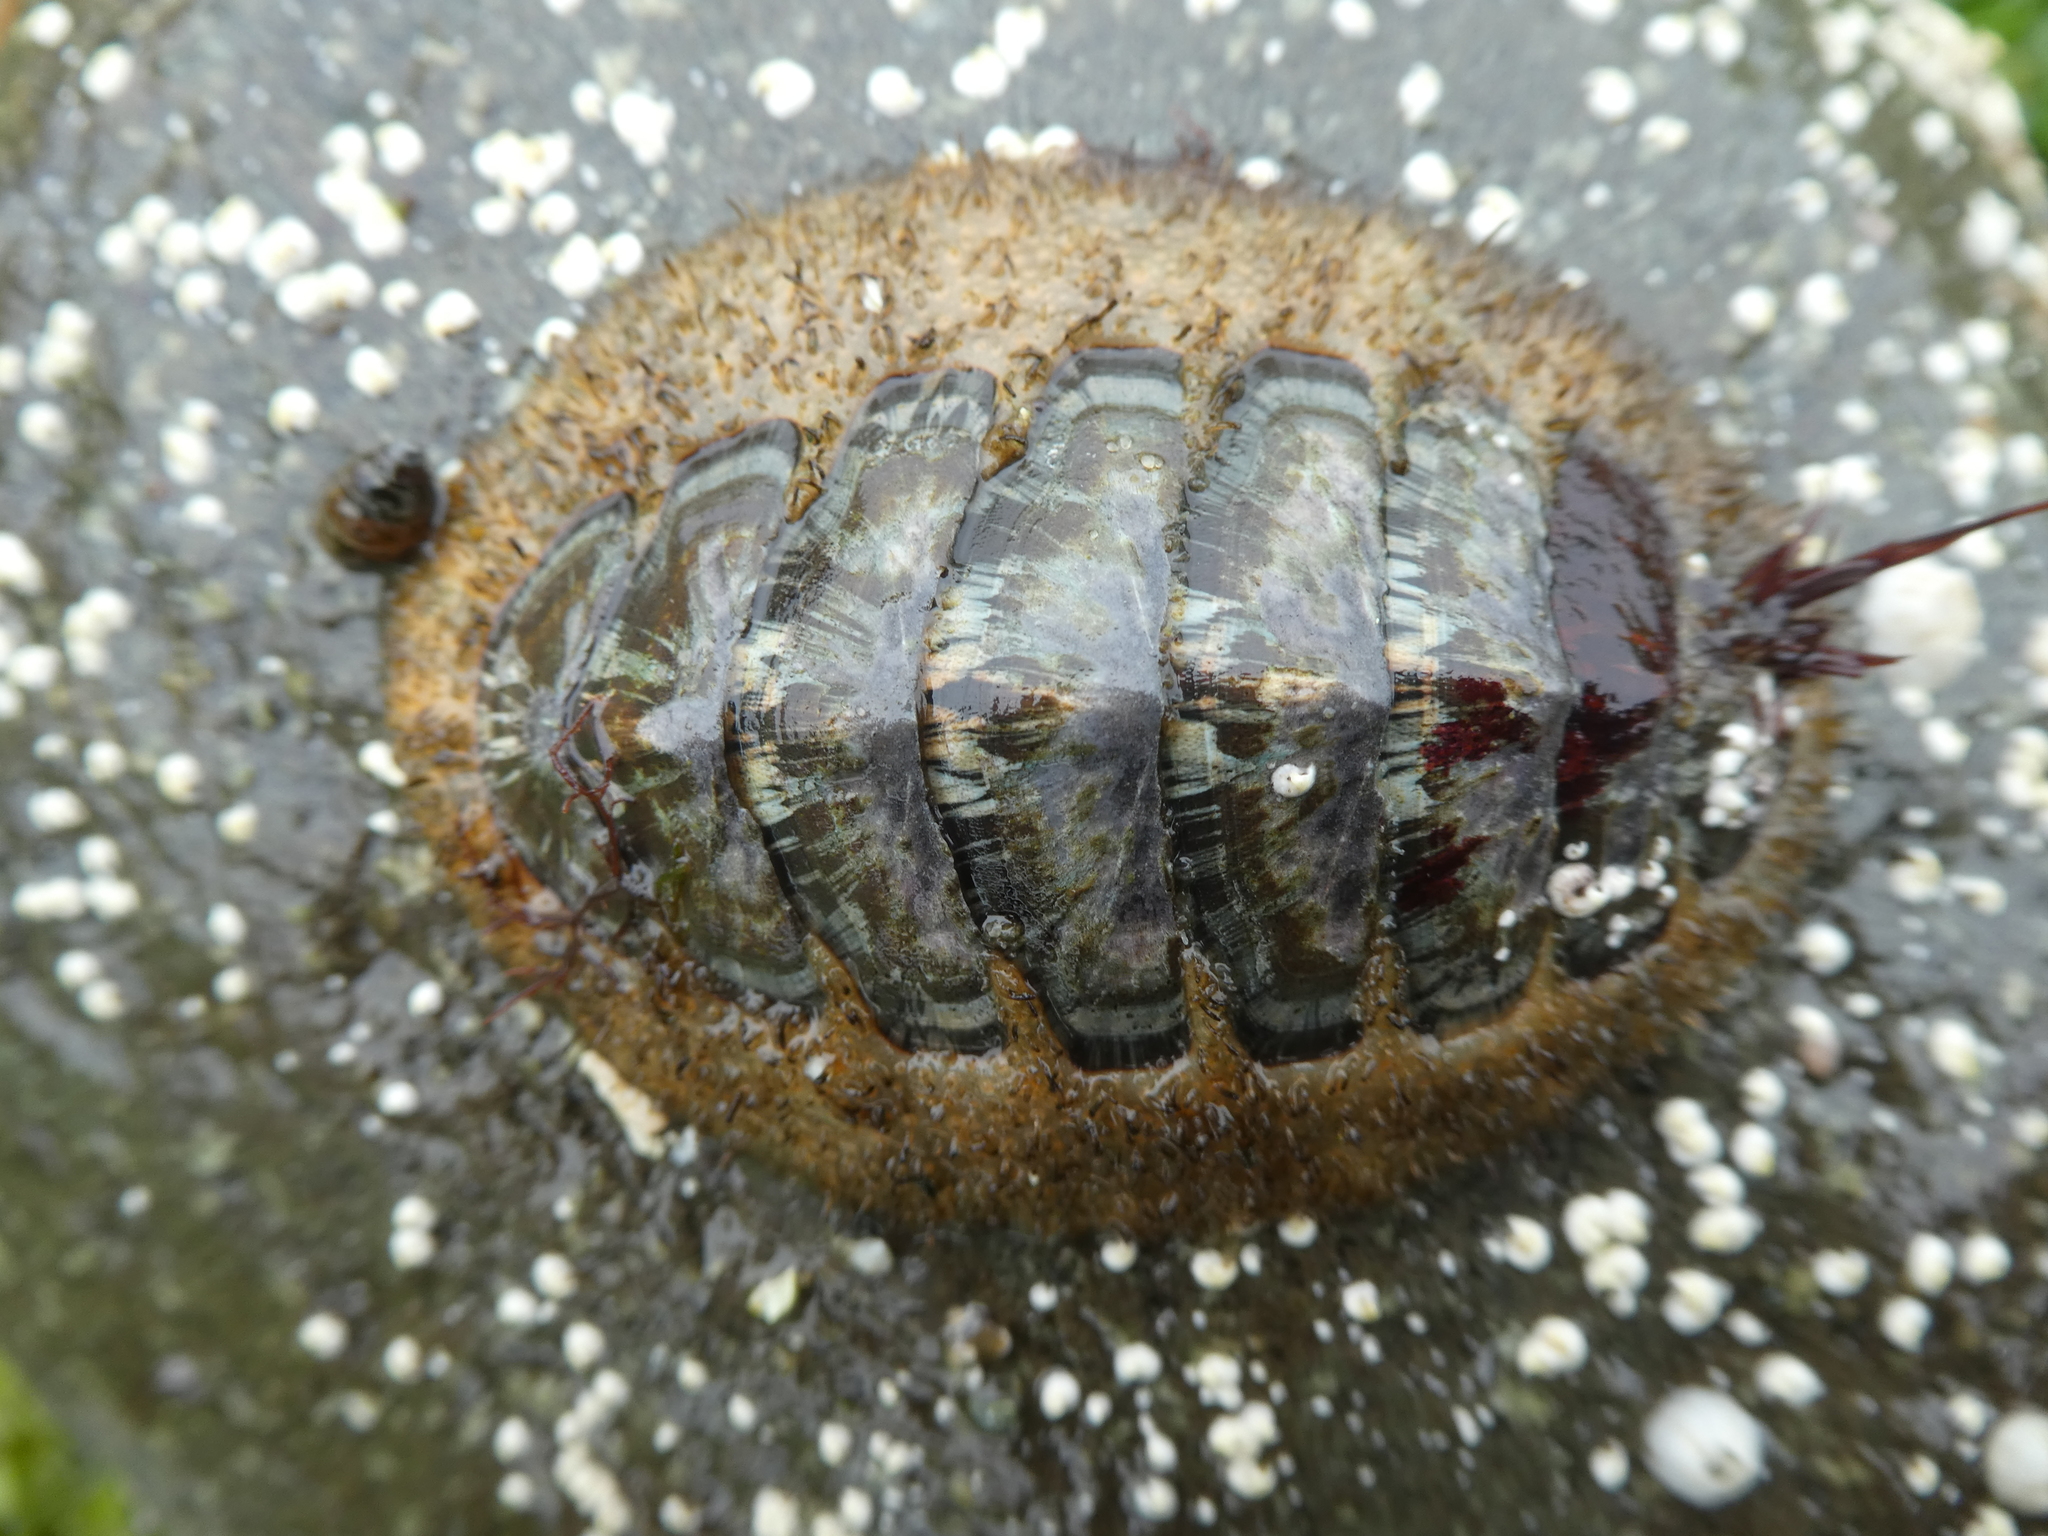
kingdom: Animalia
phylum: Mollusca
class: Polyplacophora
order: Chitonida
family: Mopaliidae
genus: Mopalia
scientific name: Mopalia lignosa
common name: Woody chiton
